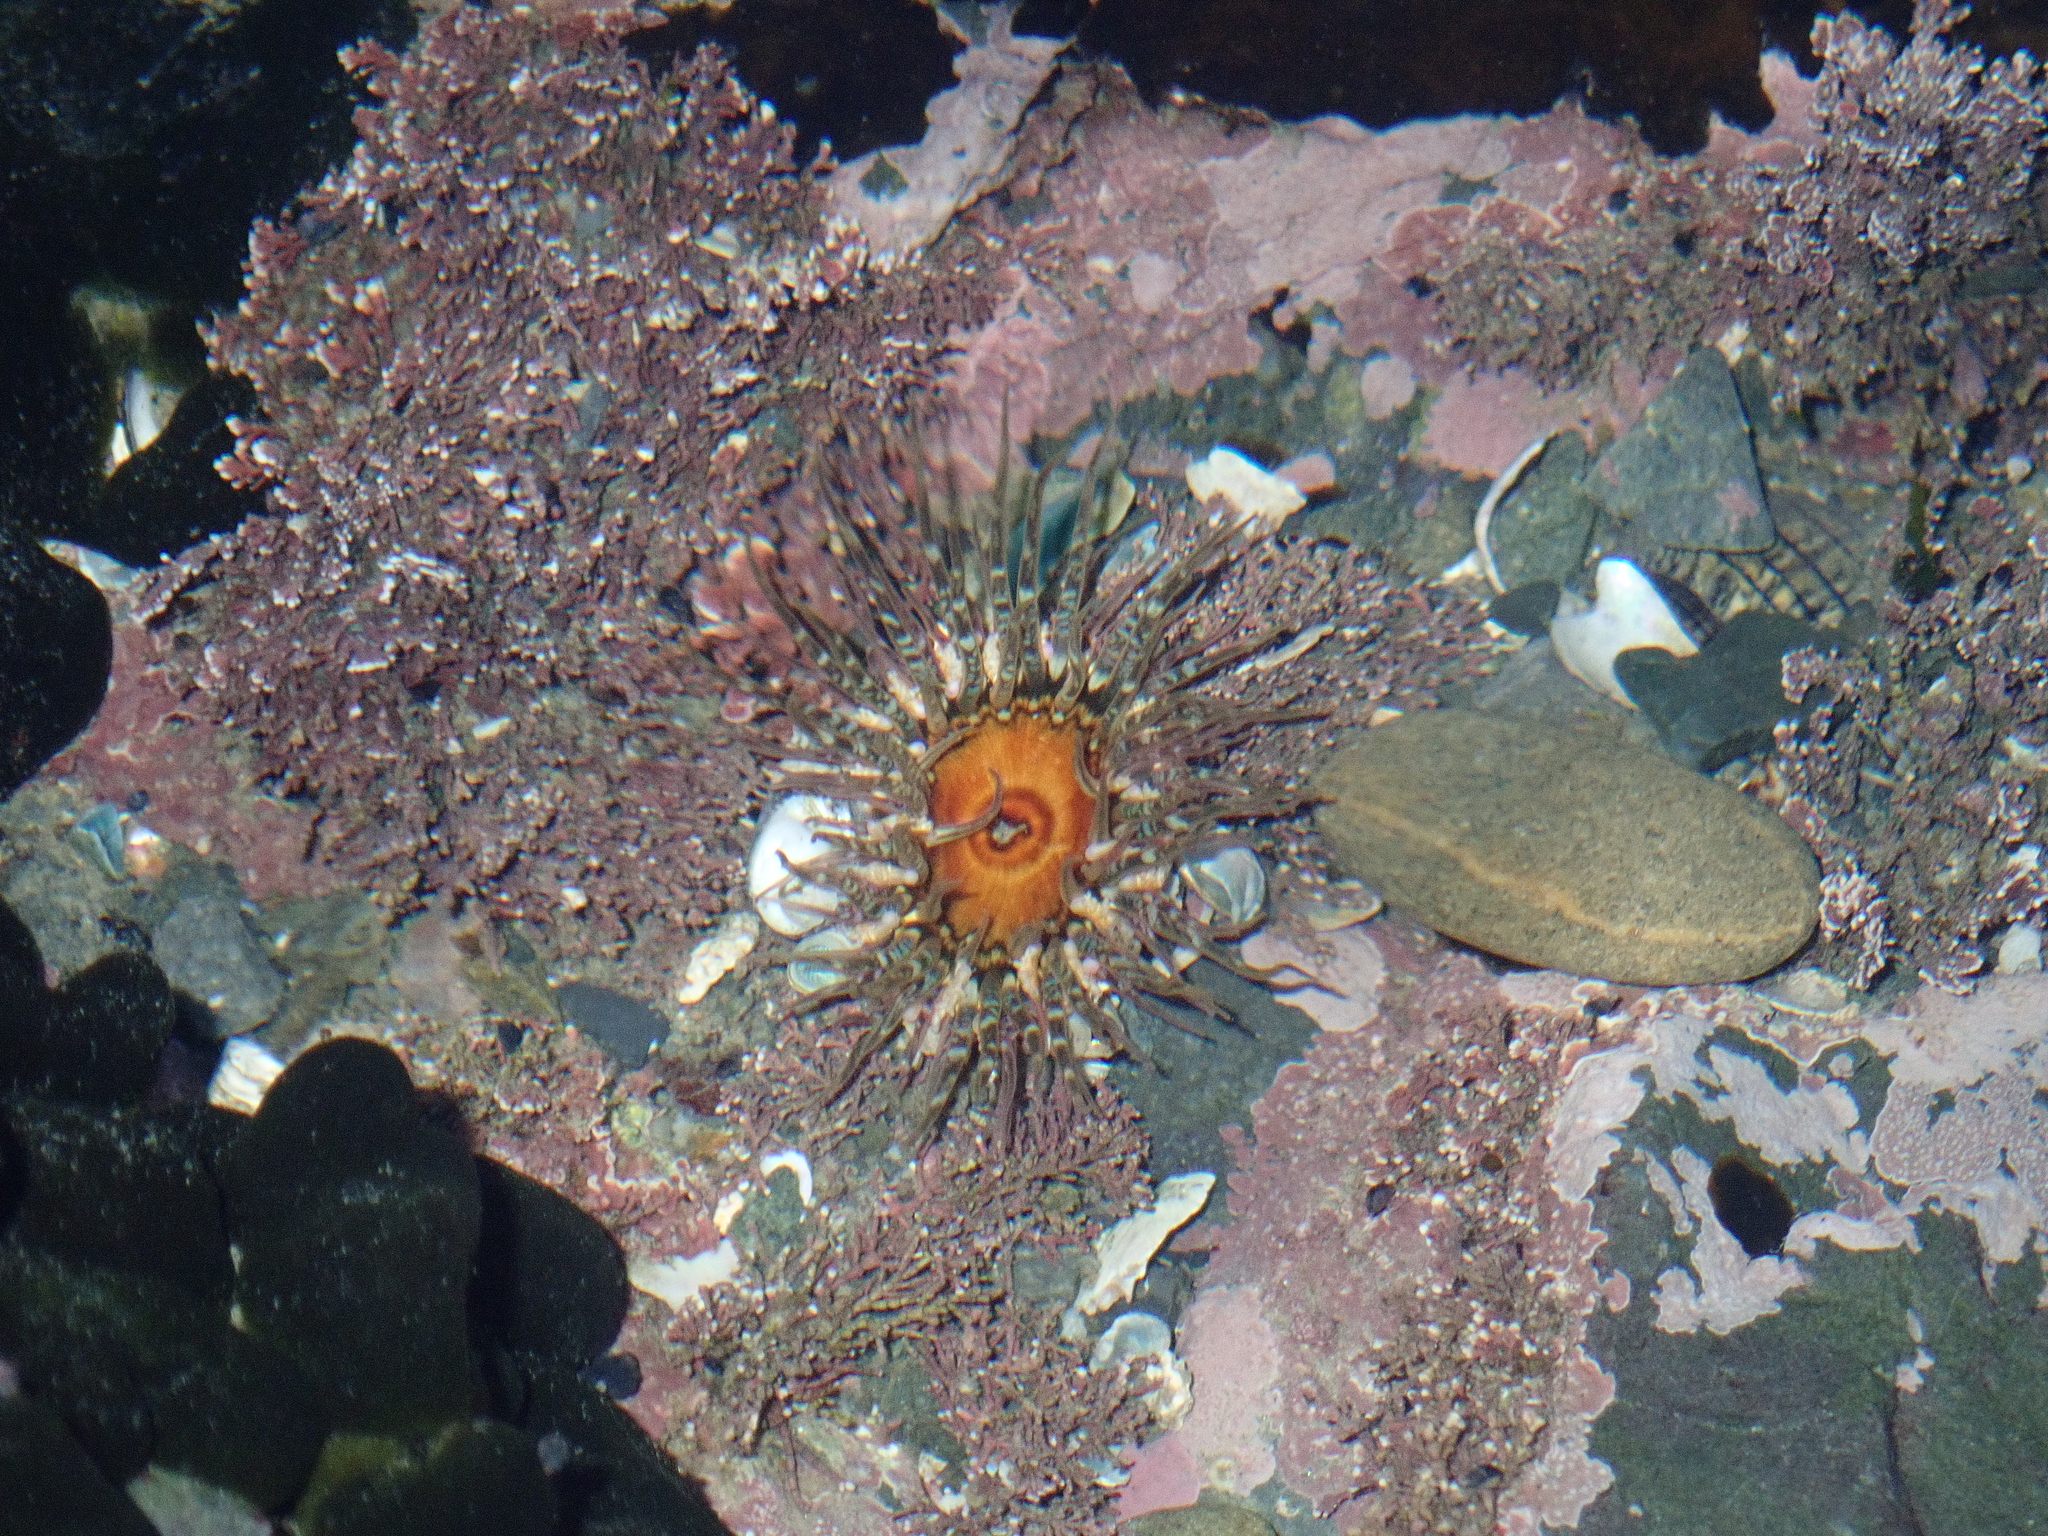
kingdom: Animalia
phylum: Cnidaria
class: Anthozoa
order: Actiniaria
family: Actiniidae
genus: Oulactis
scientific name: Oulactis muscosa
